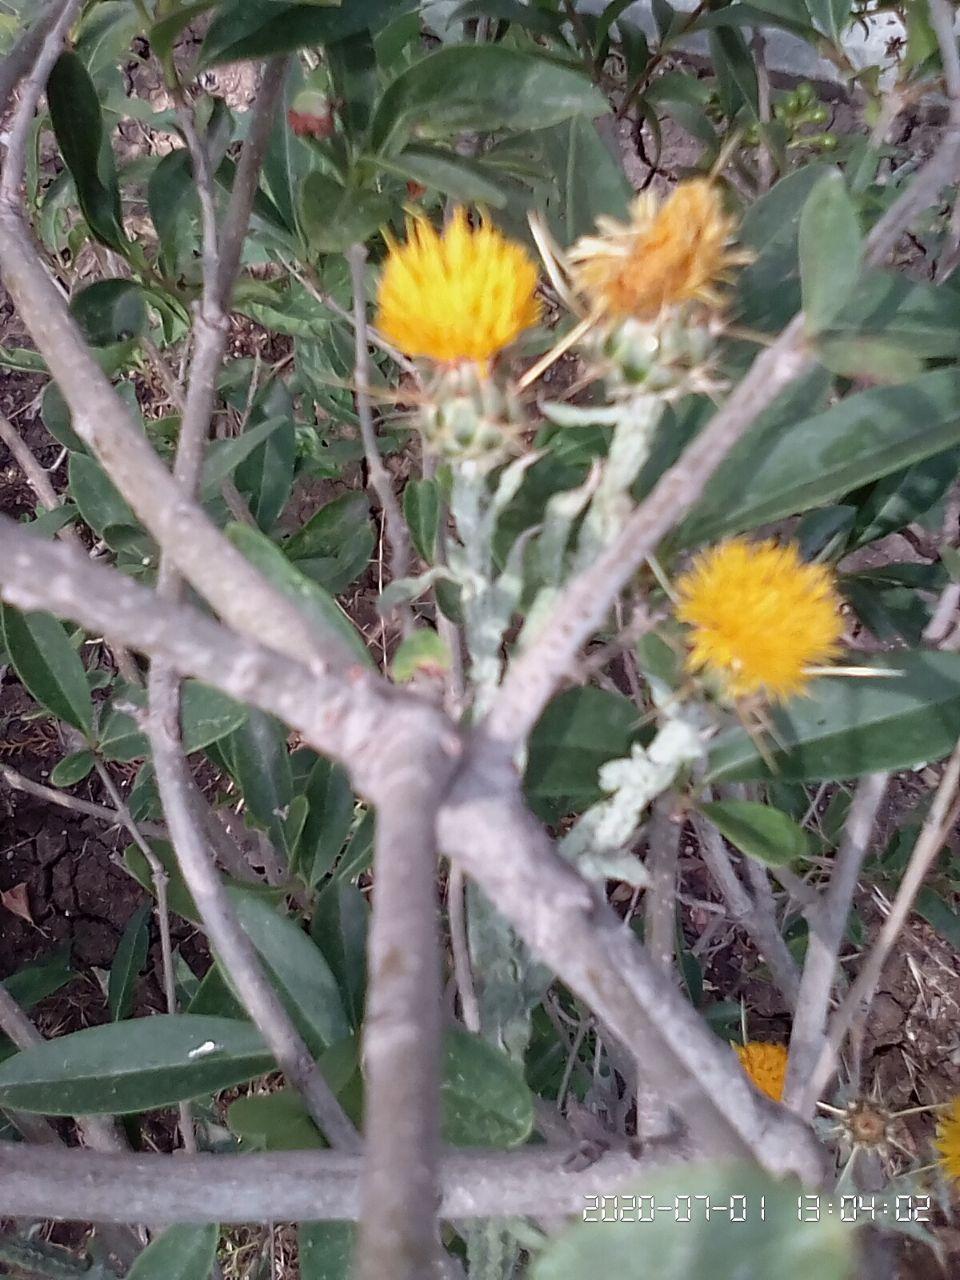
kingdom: Plantae
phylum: Tracheophyta
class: Magnoliopsida
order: Asterales
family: Asteraceae
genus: Centaurea
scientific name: Centaurea solstitialis
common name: Yellow star-thistle
